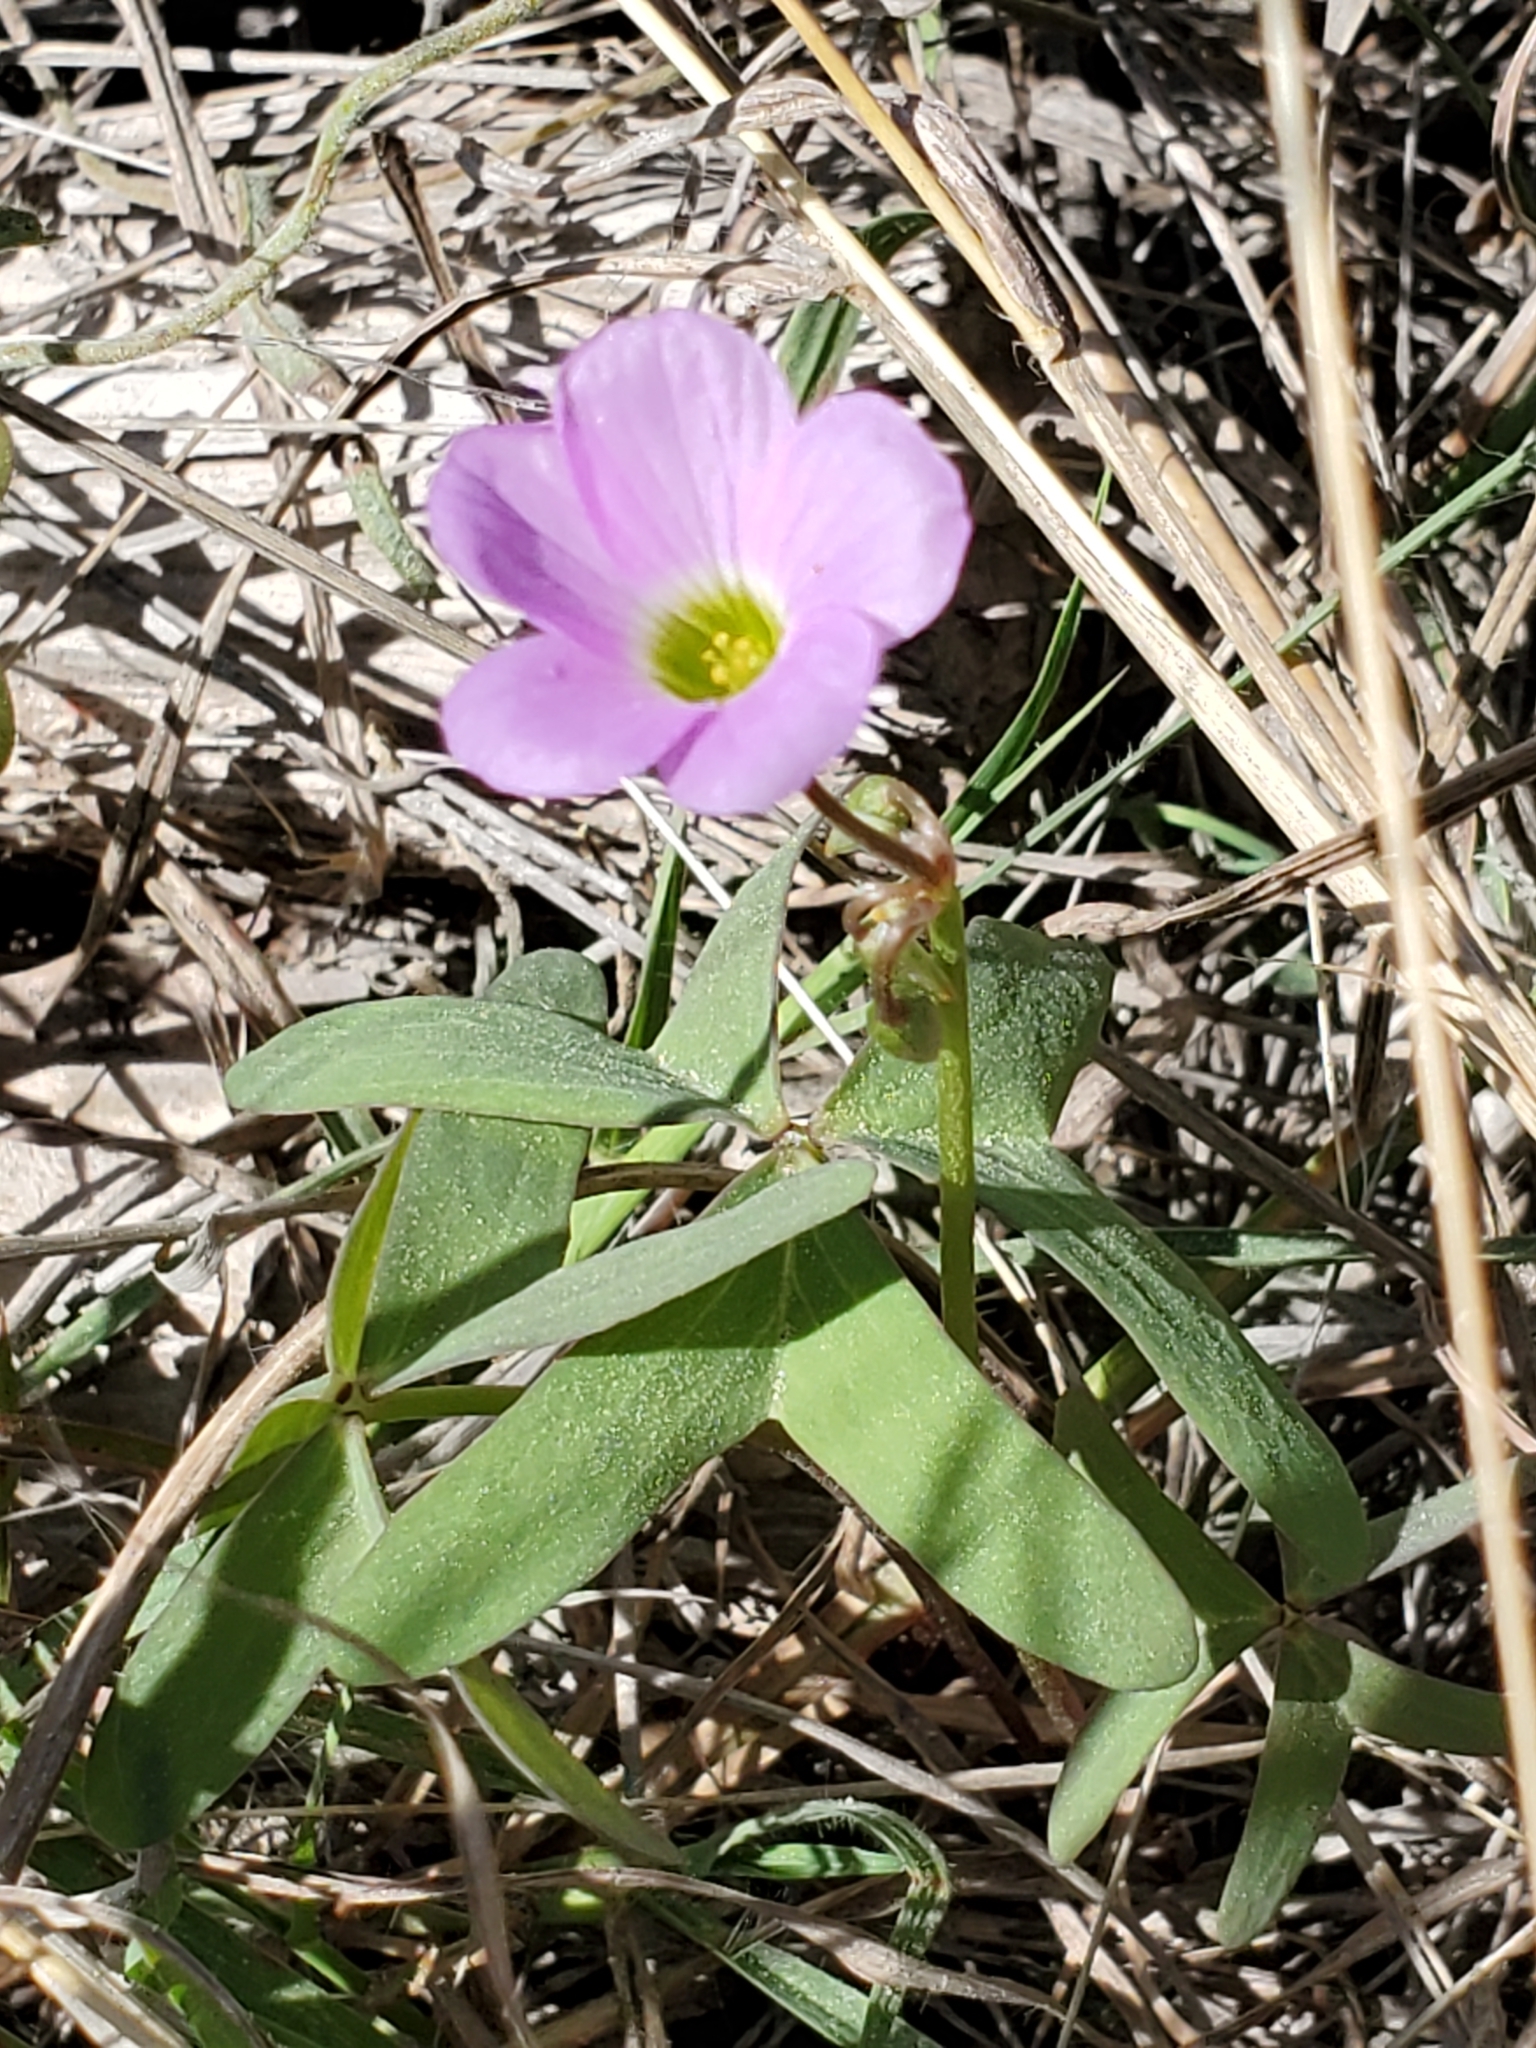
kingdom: Plantae
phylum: Tracheophyta
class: Magnoliopsida
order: Oxalidales
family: Oxalidaceae
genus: Oxalis
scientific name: Oxalis drummondii
